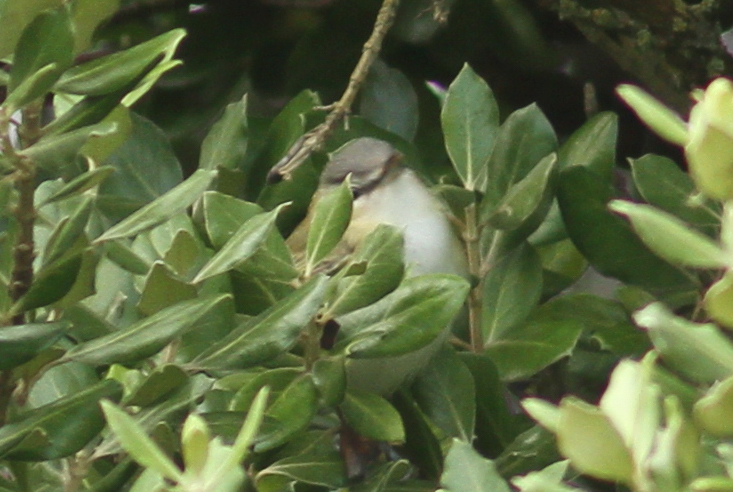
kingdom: Animalia
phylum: Chordata
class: Aves
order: Passeriformes
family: Vireonidae
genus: Vireo
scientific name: Vireo olivaceus
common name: Red-eyed vireo
